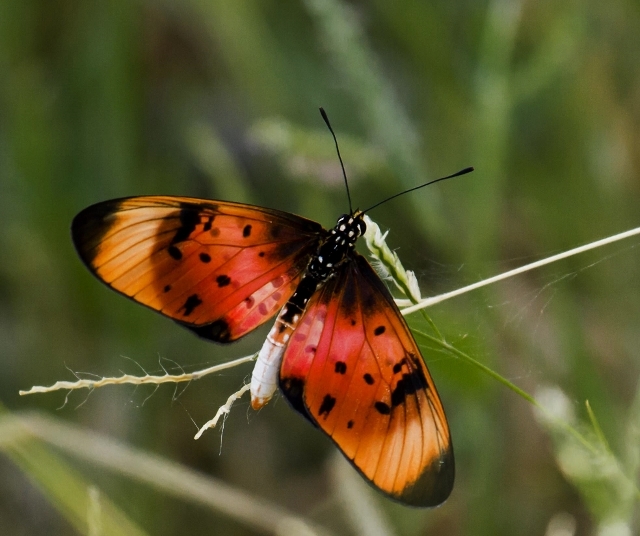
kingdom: Animalia
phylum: Arthropoda
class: Insecta
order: Lepidoptera
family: Nymphalidae
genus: Stephenia
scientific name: Stephenia
